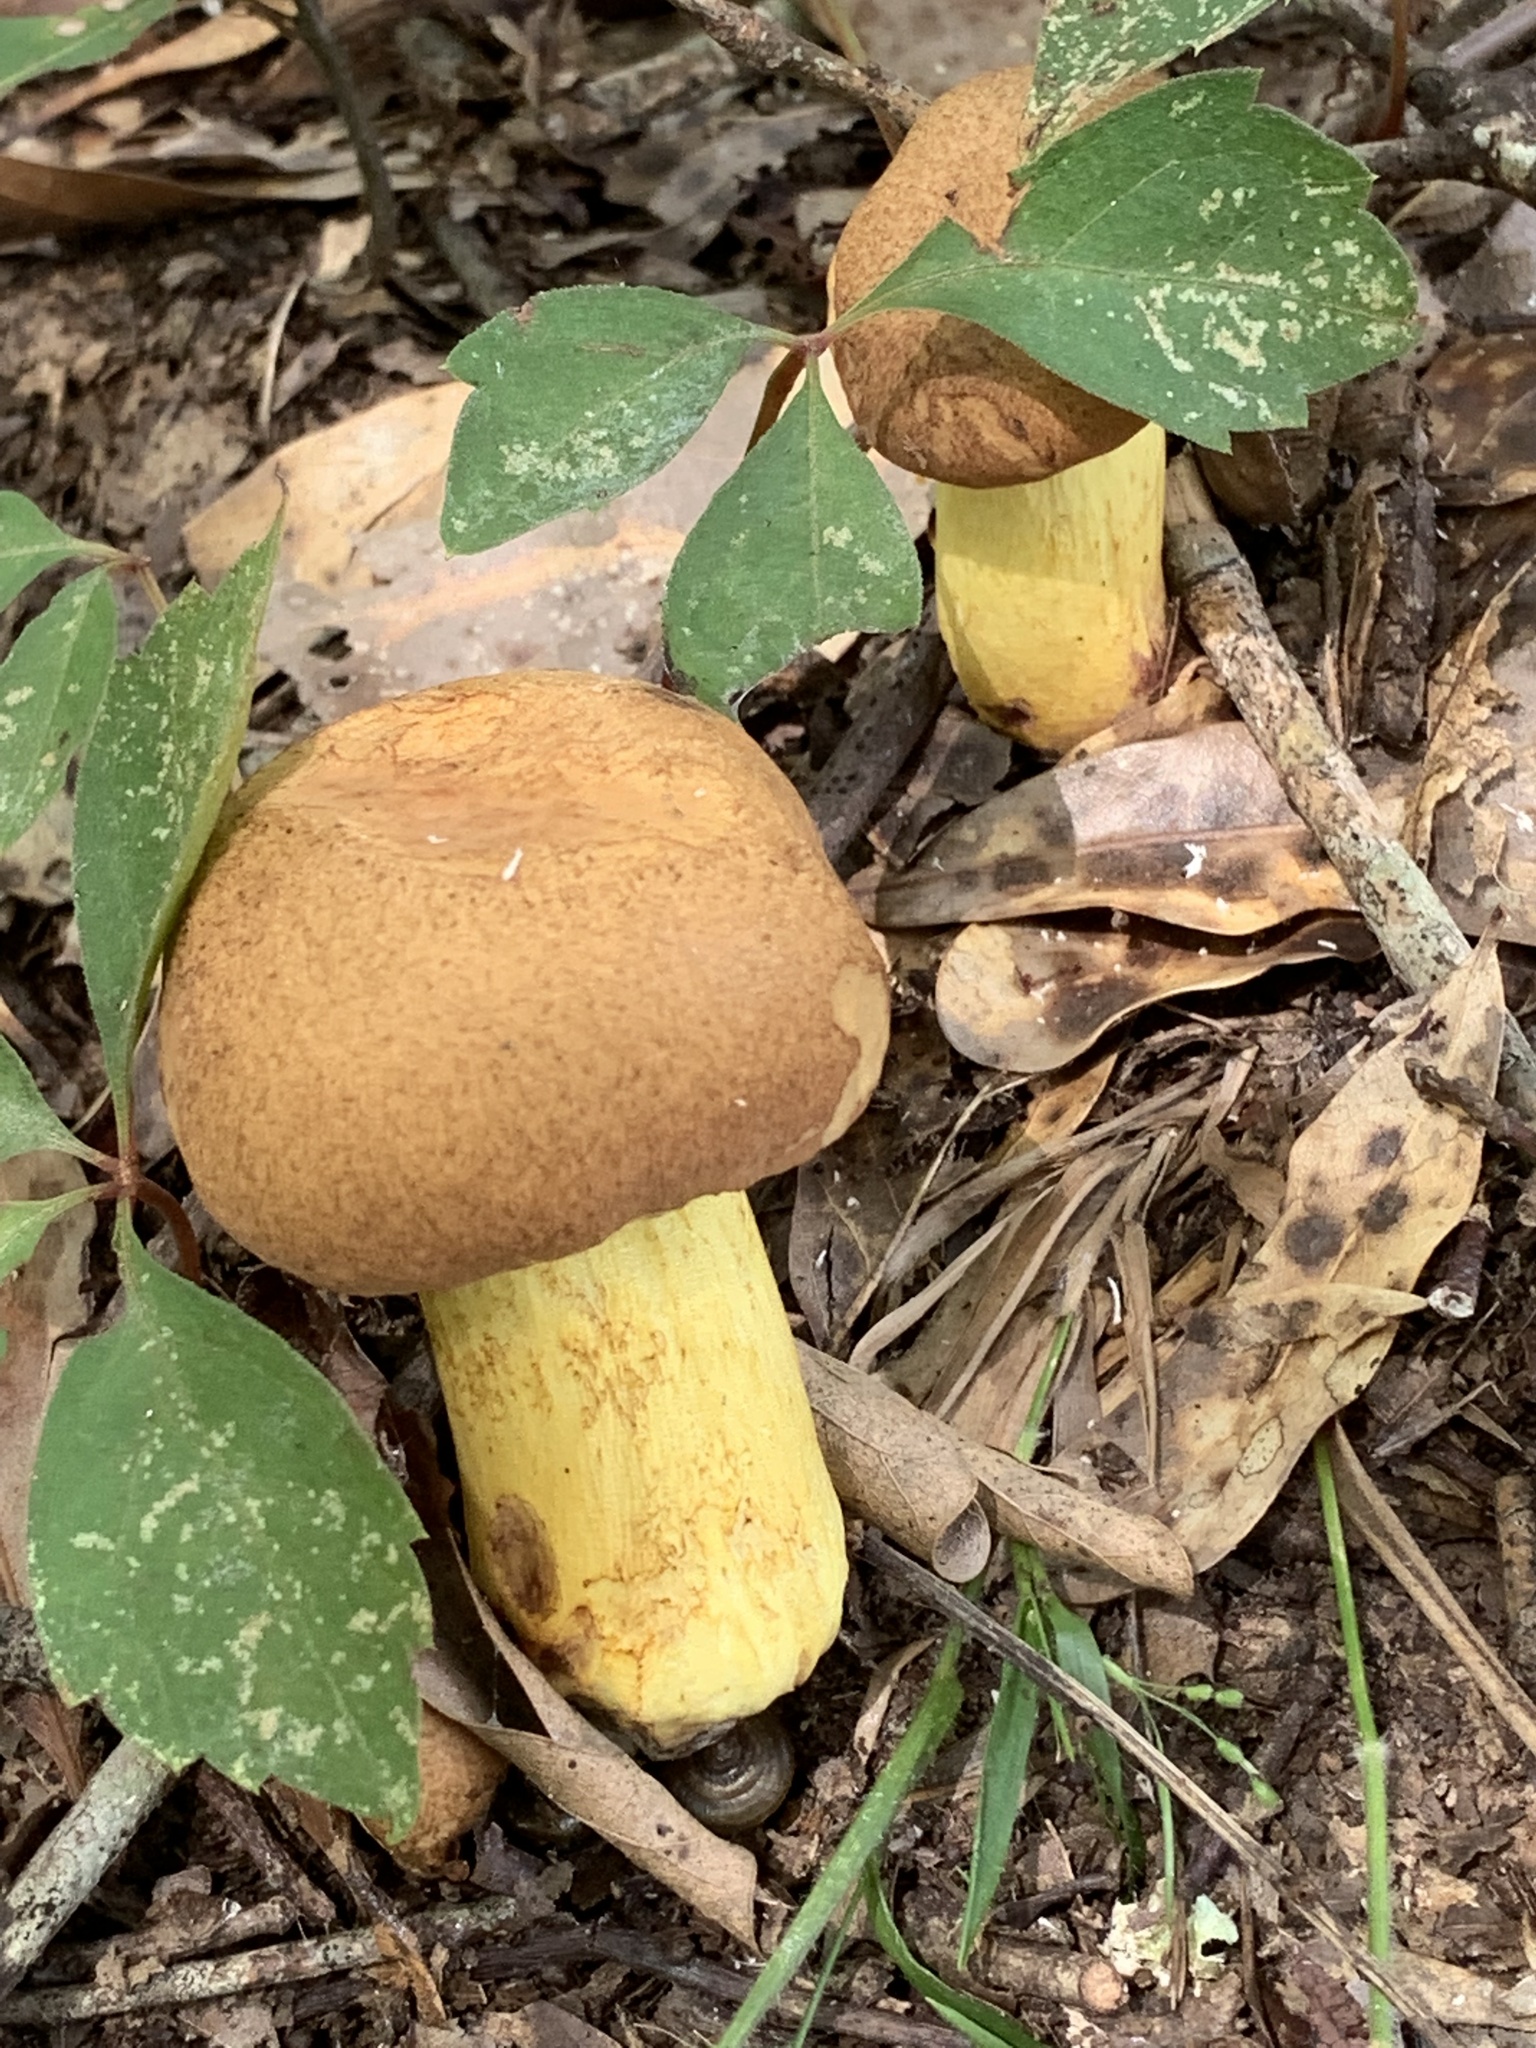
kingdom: Fungi
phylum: Basidiomycota
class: Agaricomycetes
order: Boletales
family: Boletaceae
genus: Pulchroboletus
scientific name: Pulchroboletus rubricitrinus
